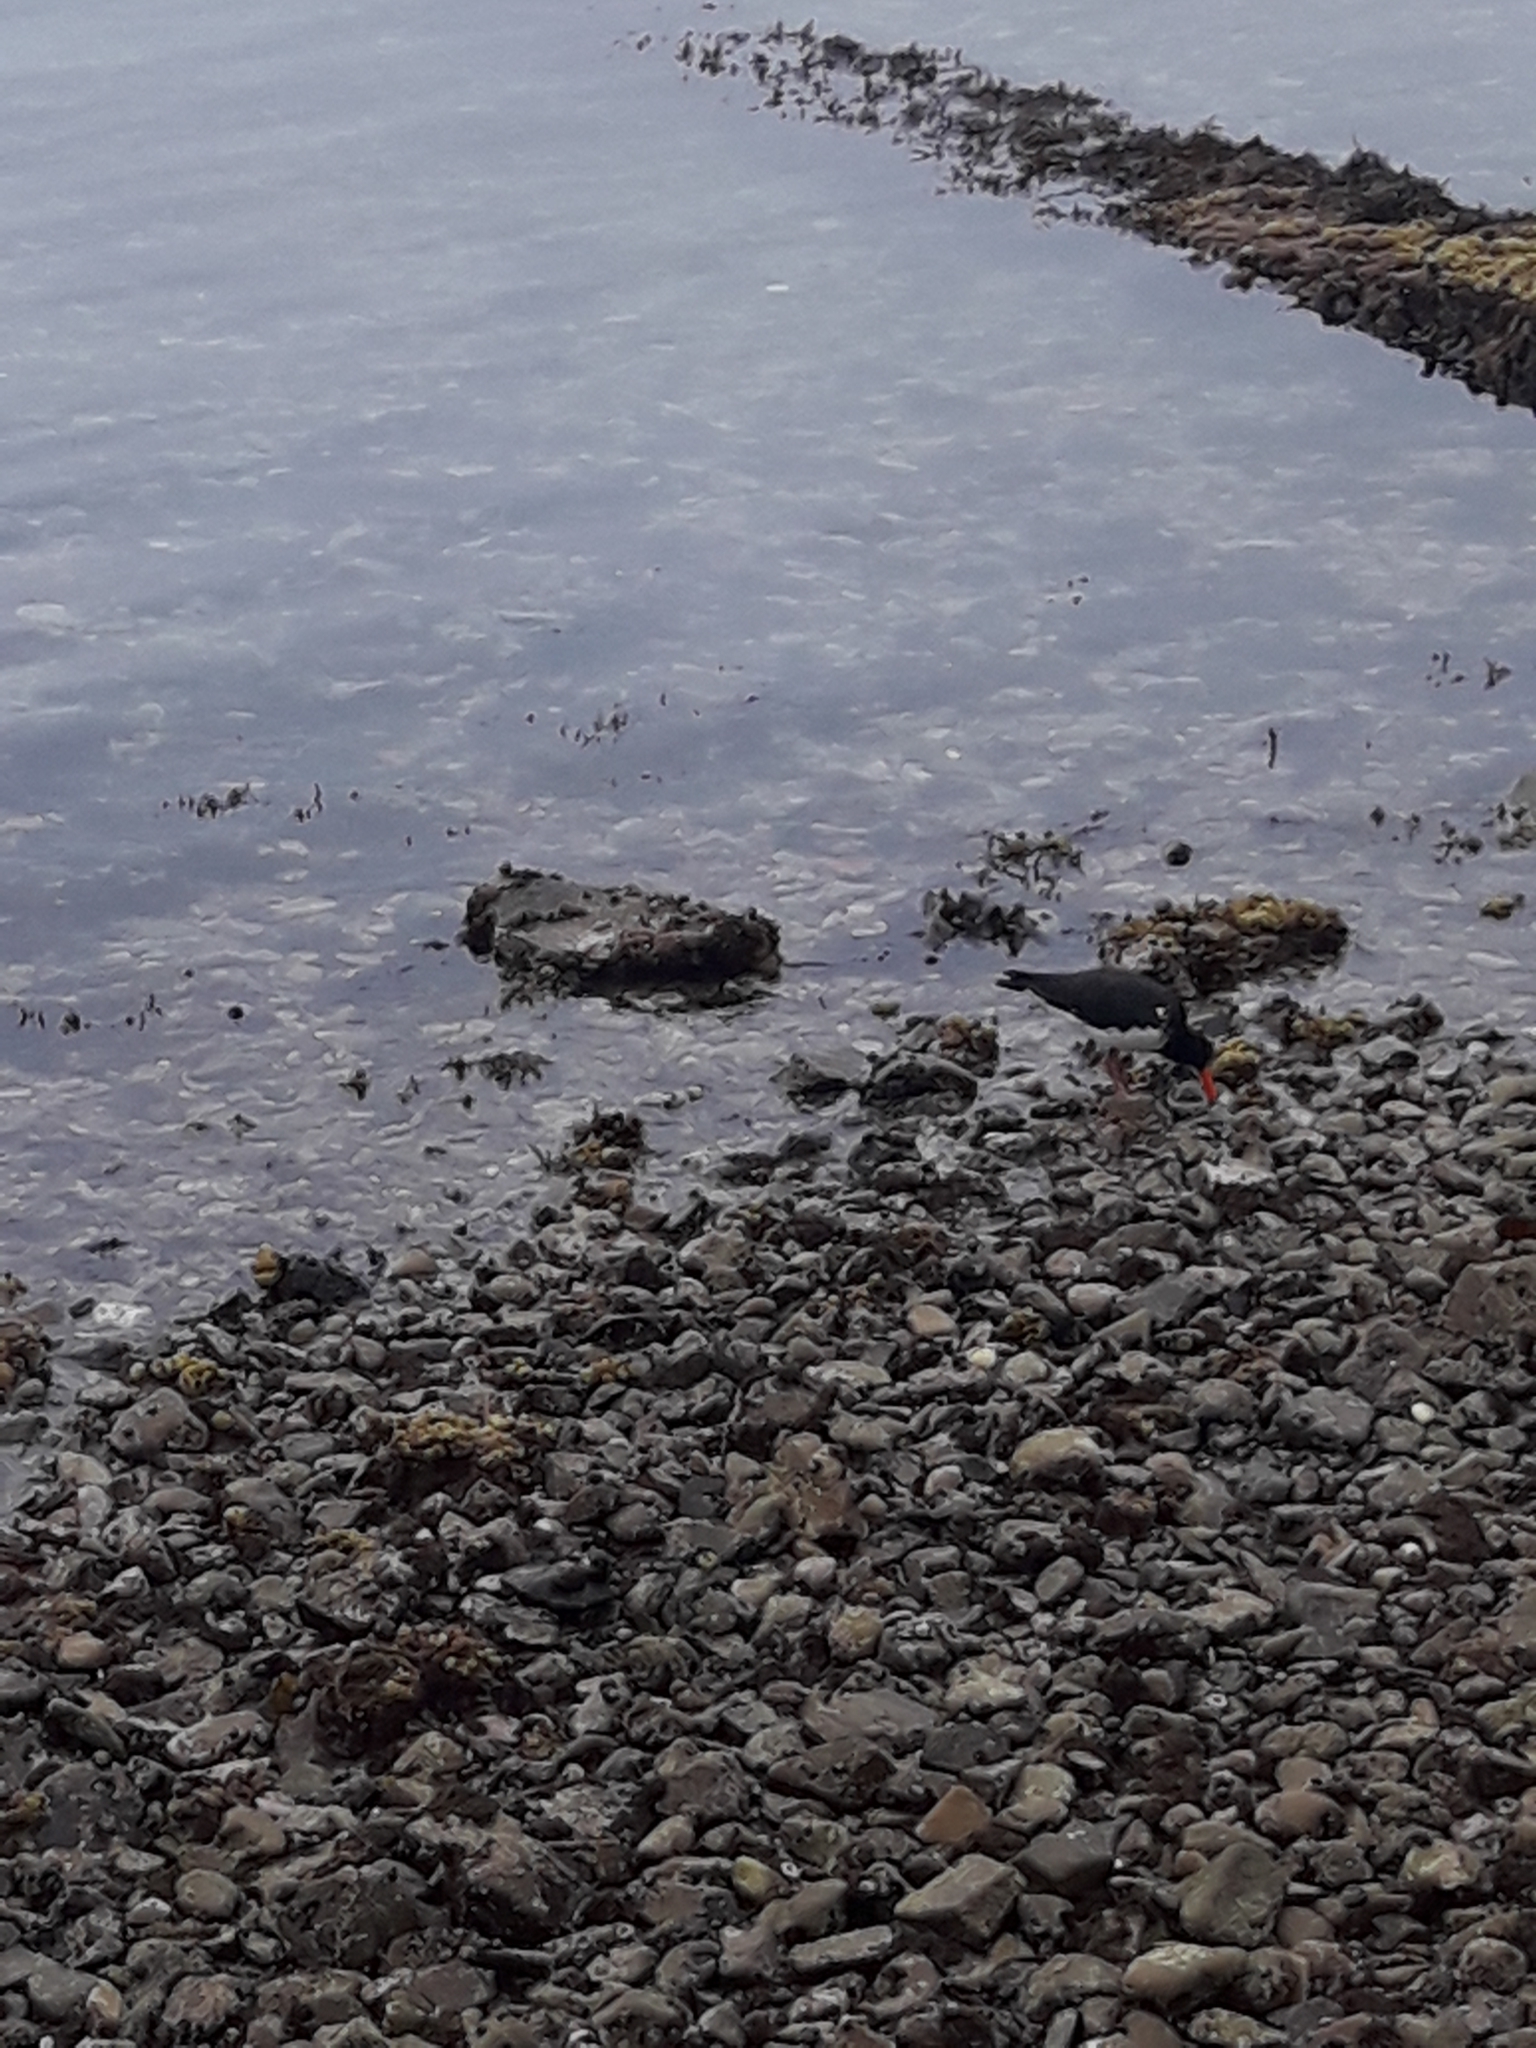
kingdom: Animalia
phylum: Chordata
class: Aves
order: Charadriiformes
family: Haematopodidae
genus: Haematopus
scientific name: Haematopus unicolor
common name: Variable oystercatcher
